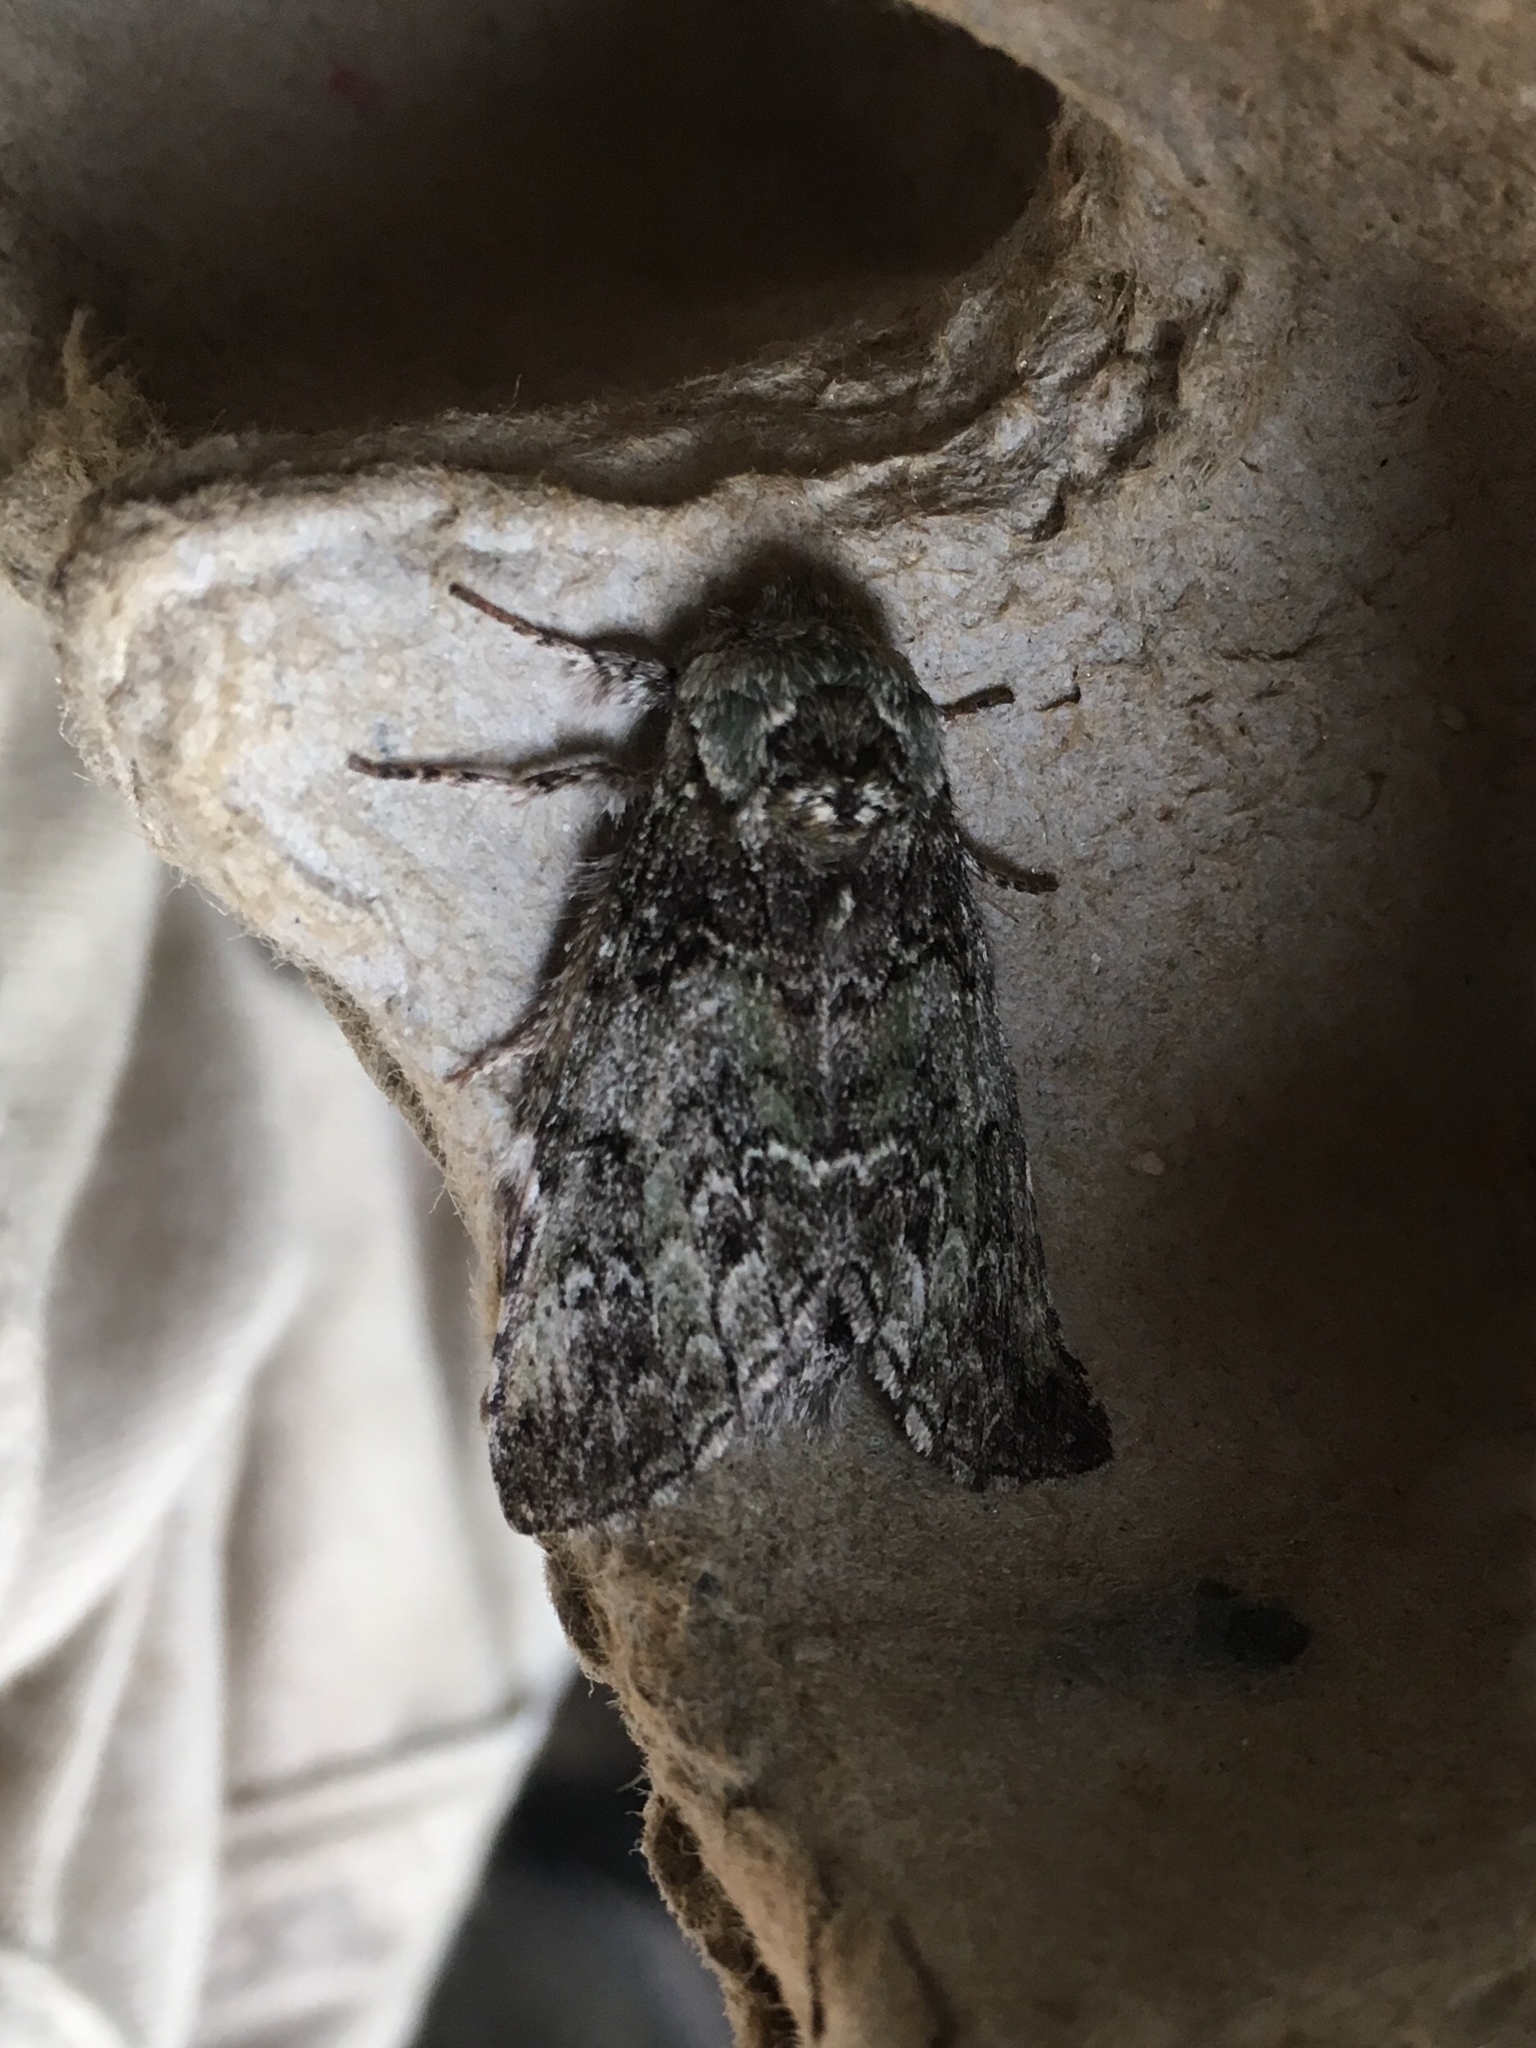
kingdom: Animalia
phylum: Arthropoda
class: Insecta
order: Lepidoptera
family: Notodontidae
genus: Macrurocampa
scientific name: Macrurocampa marthesia
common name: Mottled prominent
